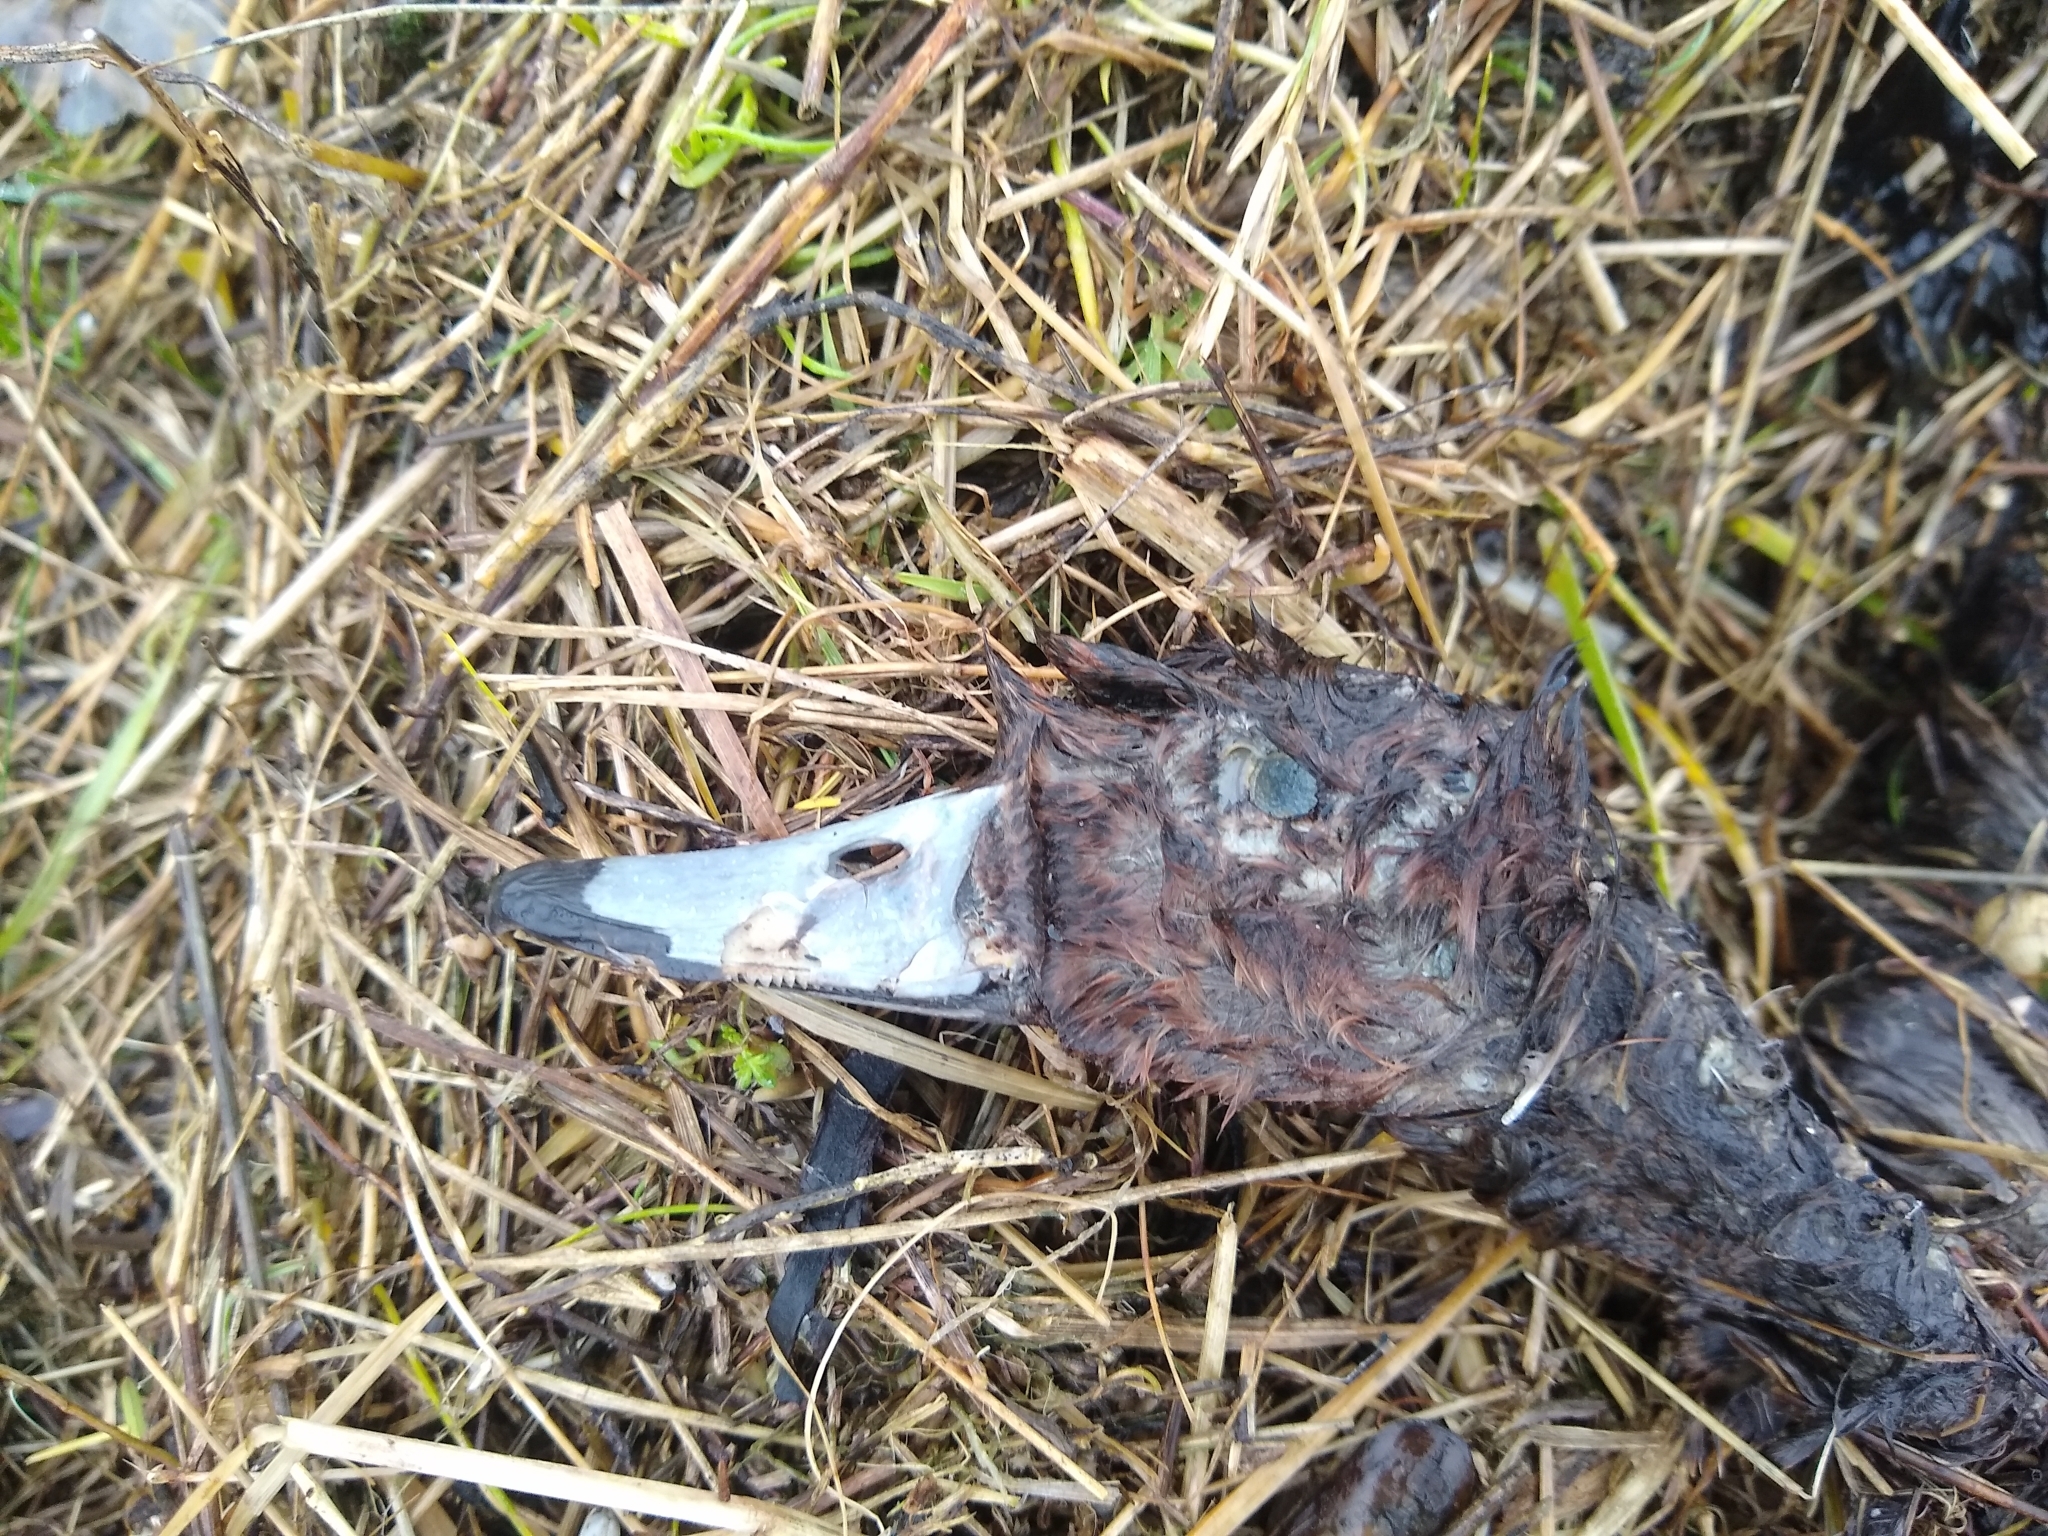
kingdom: Animalia
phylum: Chordata
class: Aves
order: Anseriformes
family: Anatidae
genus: Aythya
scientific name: Aythya fuligula
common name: Tufted duck
